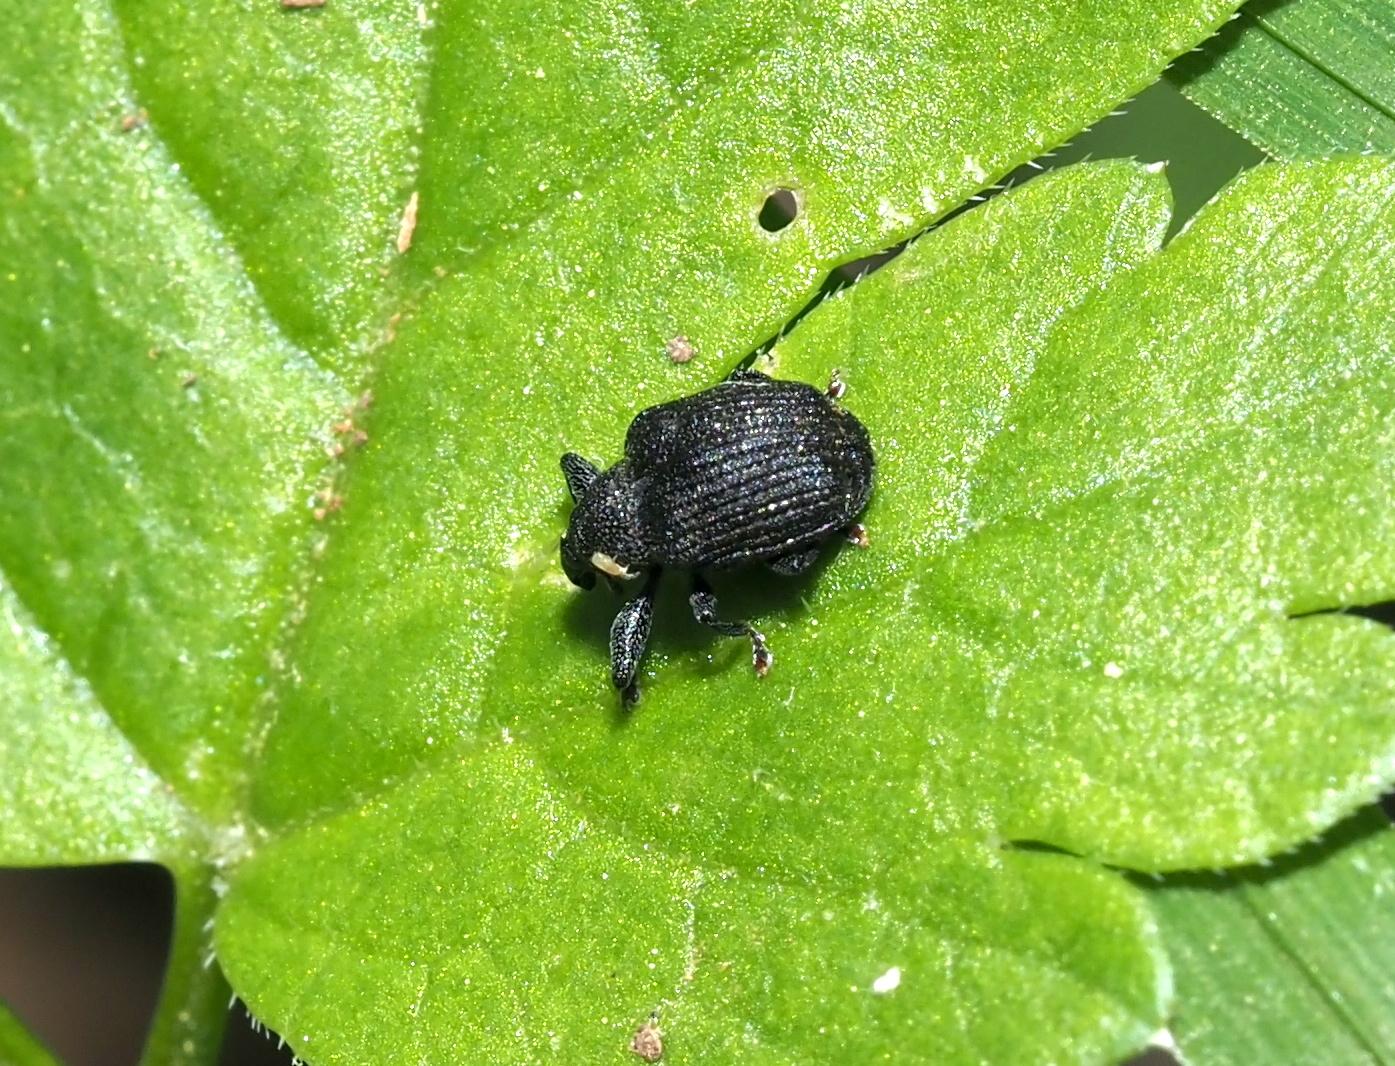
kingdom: Animalia
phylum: Arthropoda
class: Insecta
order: Coleoptera
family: Curculionidae
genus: Odontopus
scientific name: Odontopus calceatus
